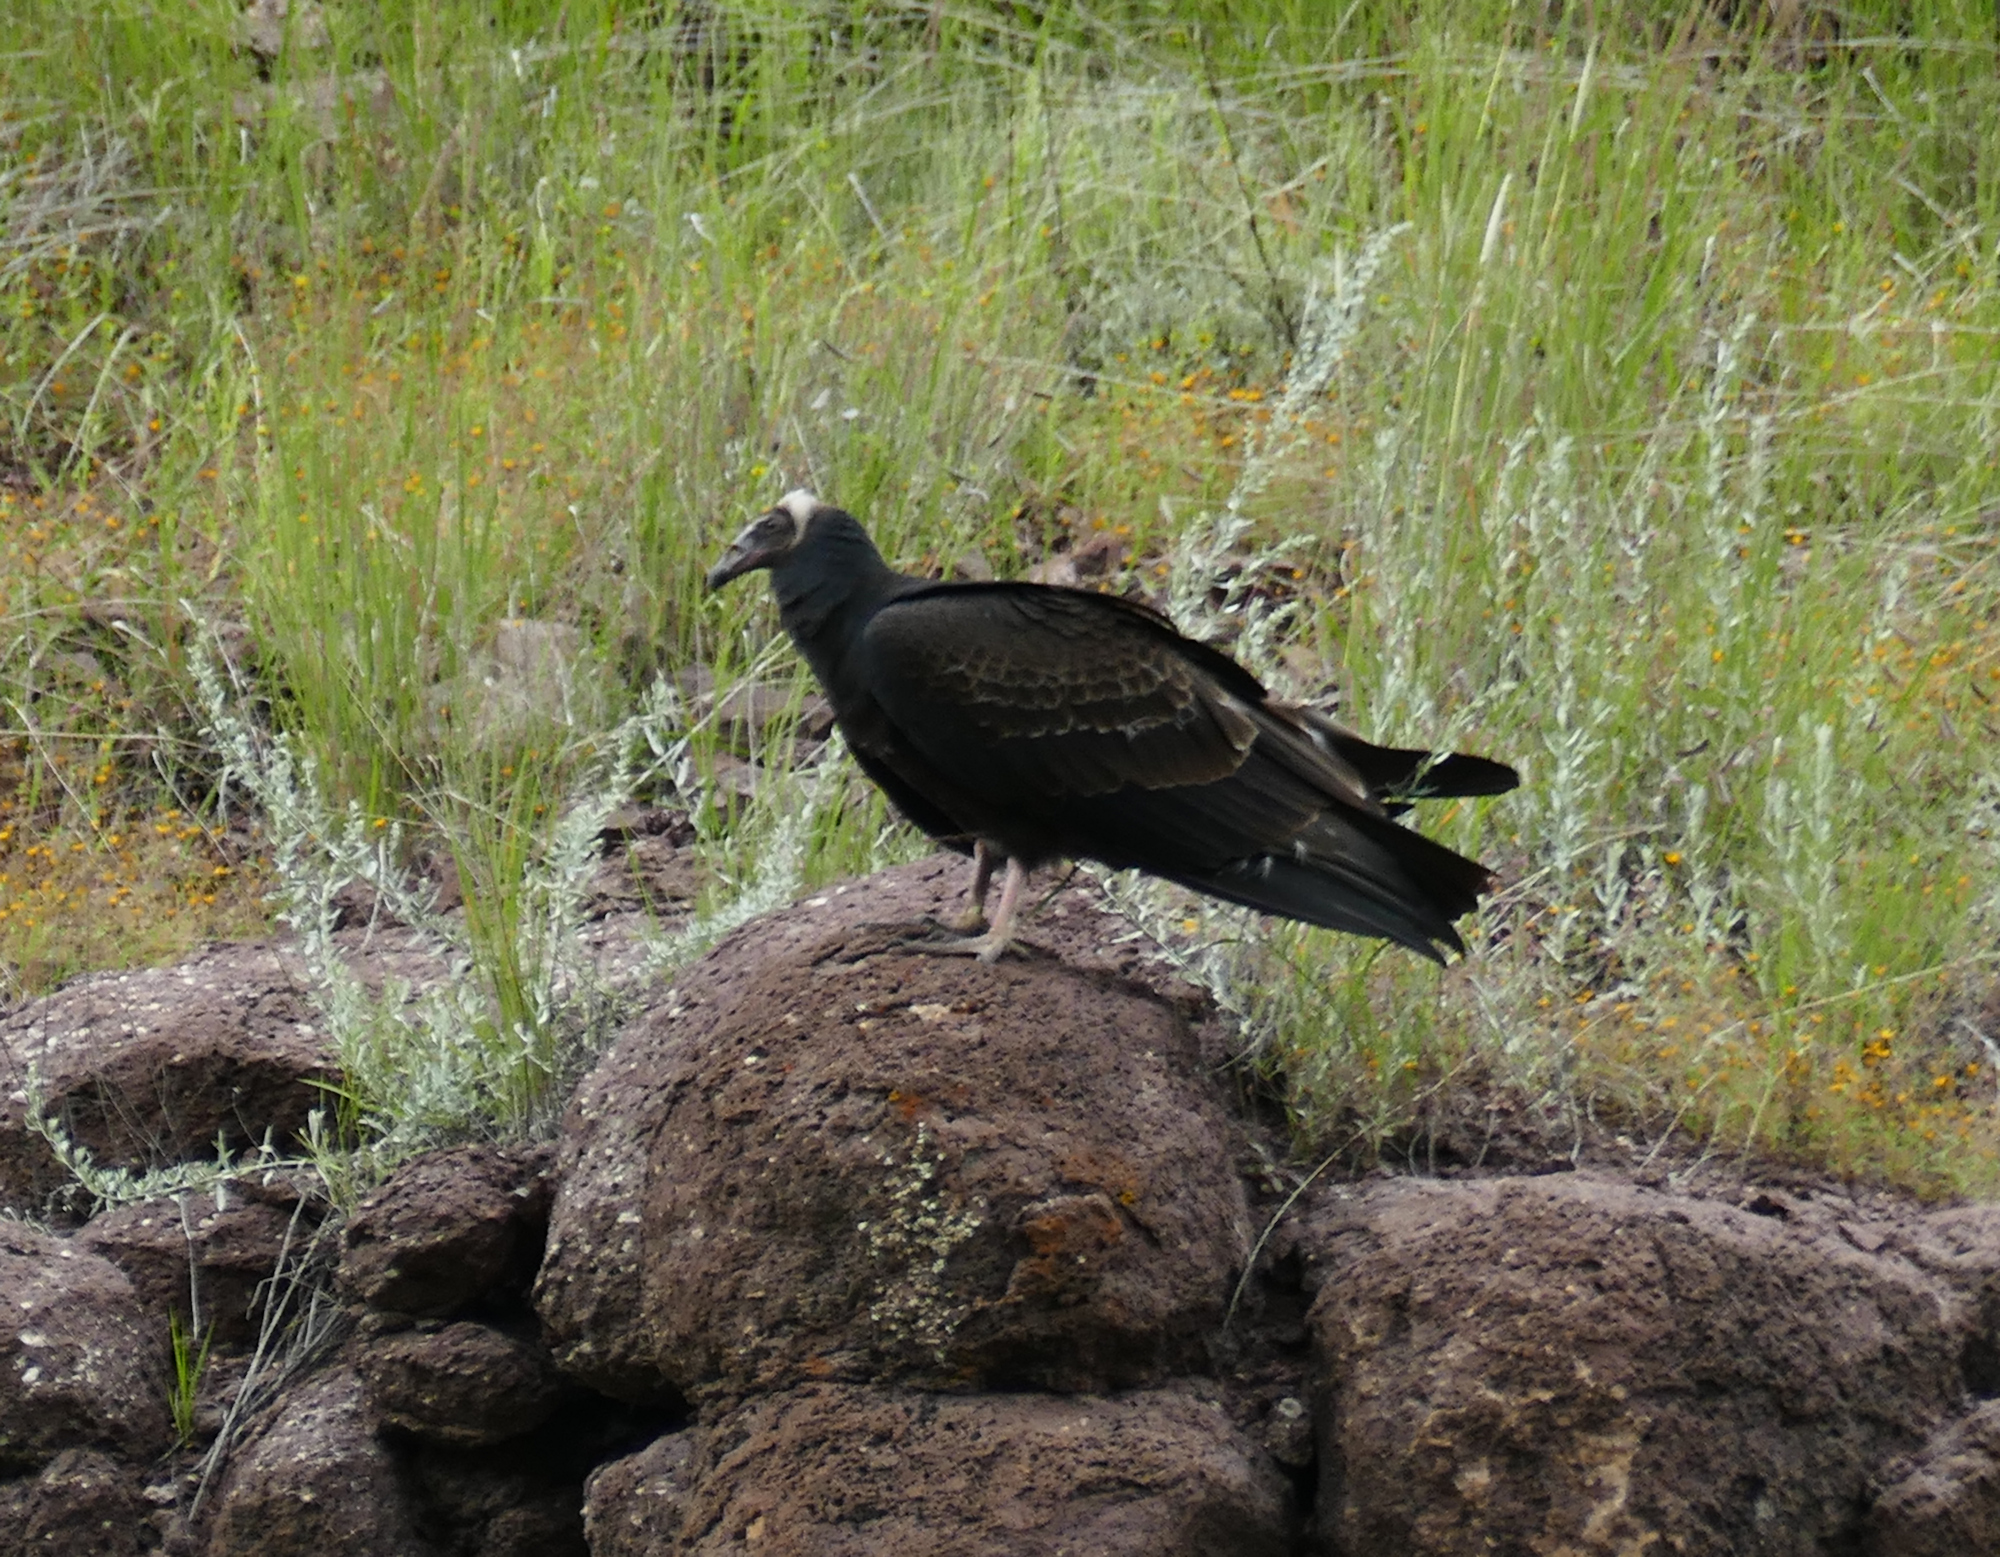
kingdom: Animalia
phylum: Chordata
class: Aves
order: Accipitriformes
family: Cathartidae
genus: Cathartes
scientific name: Cathartes aura
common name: Turkey vulture
